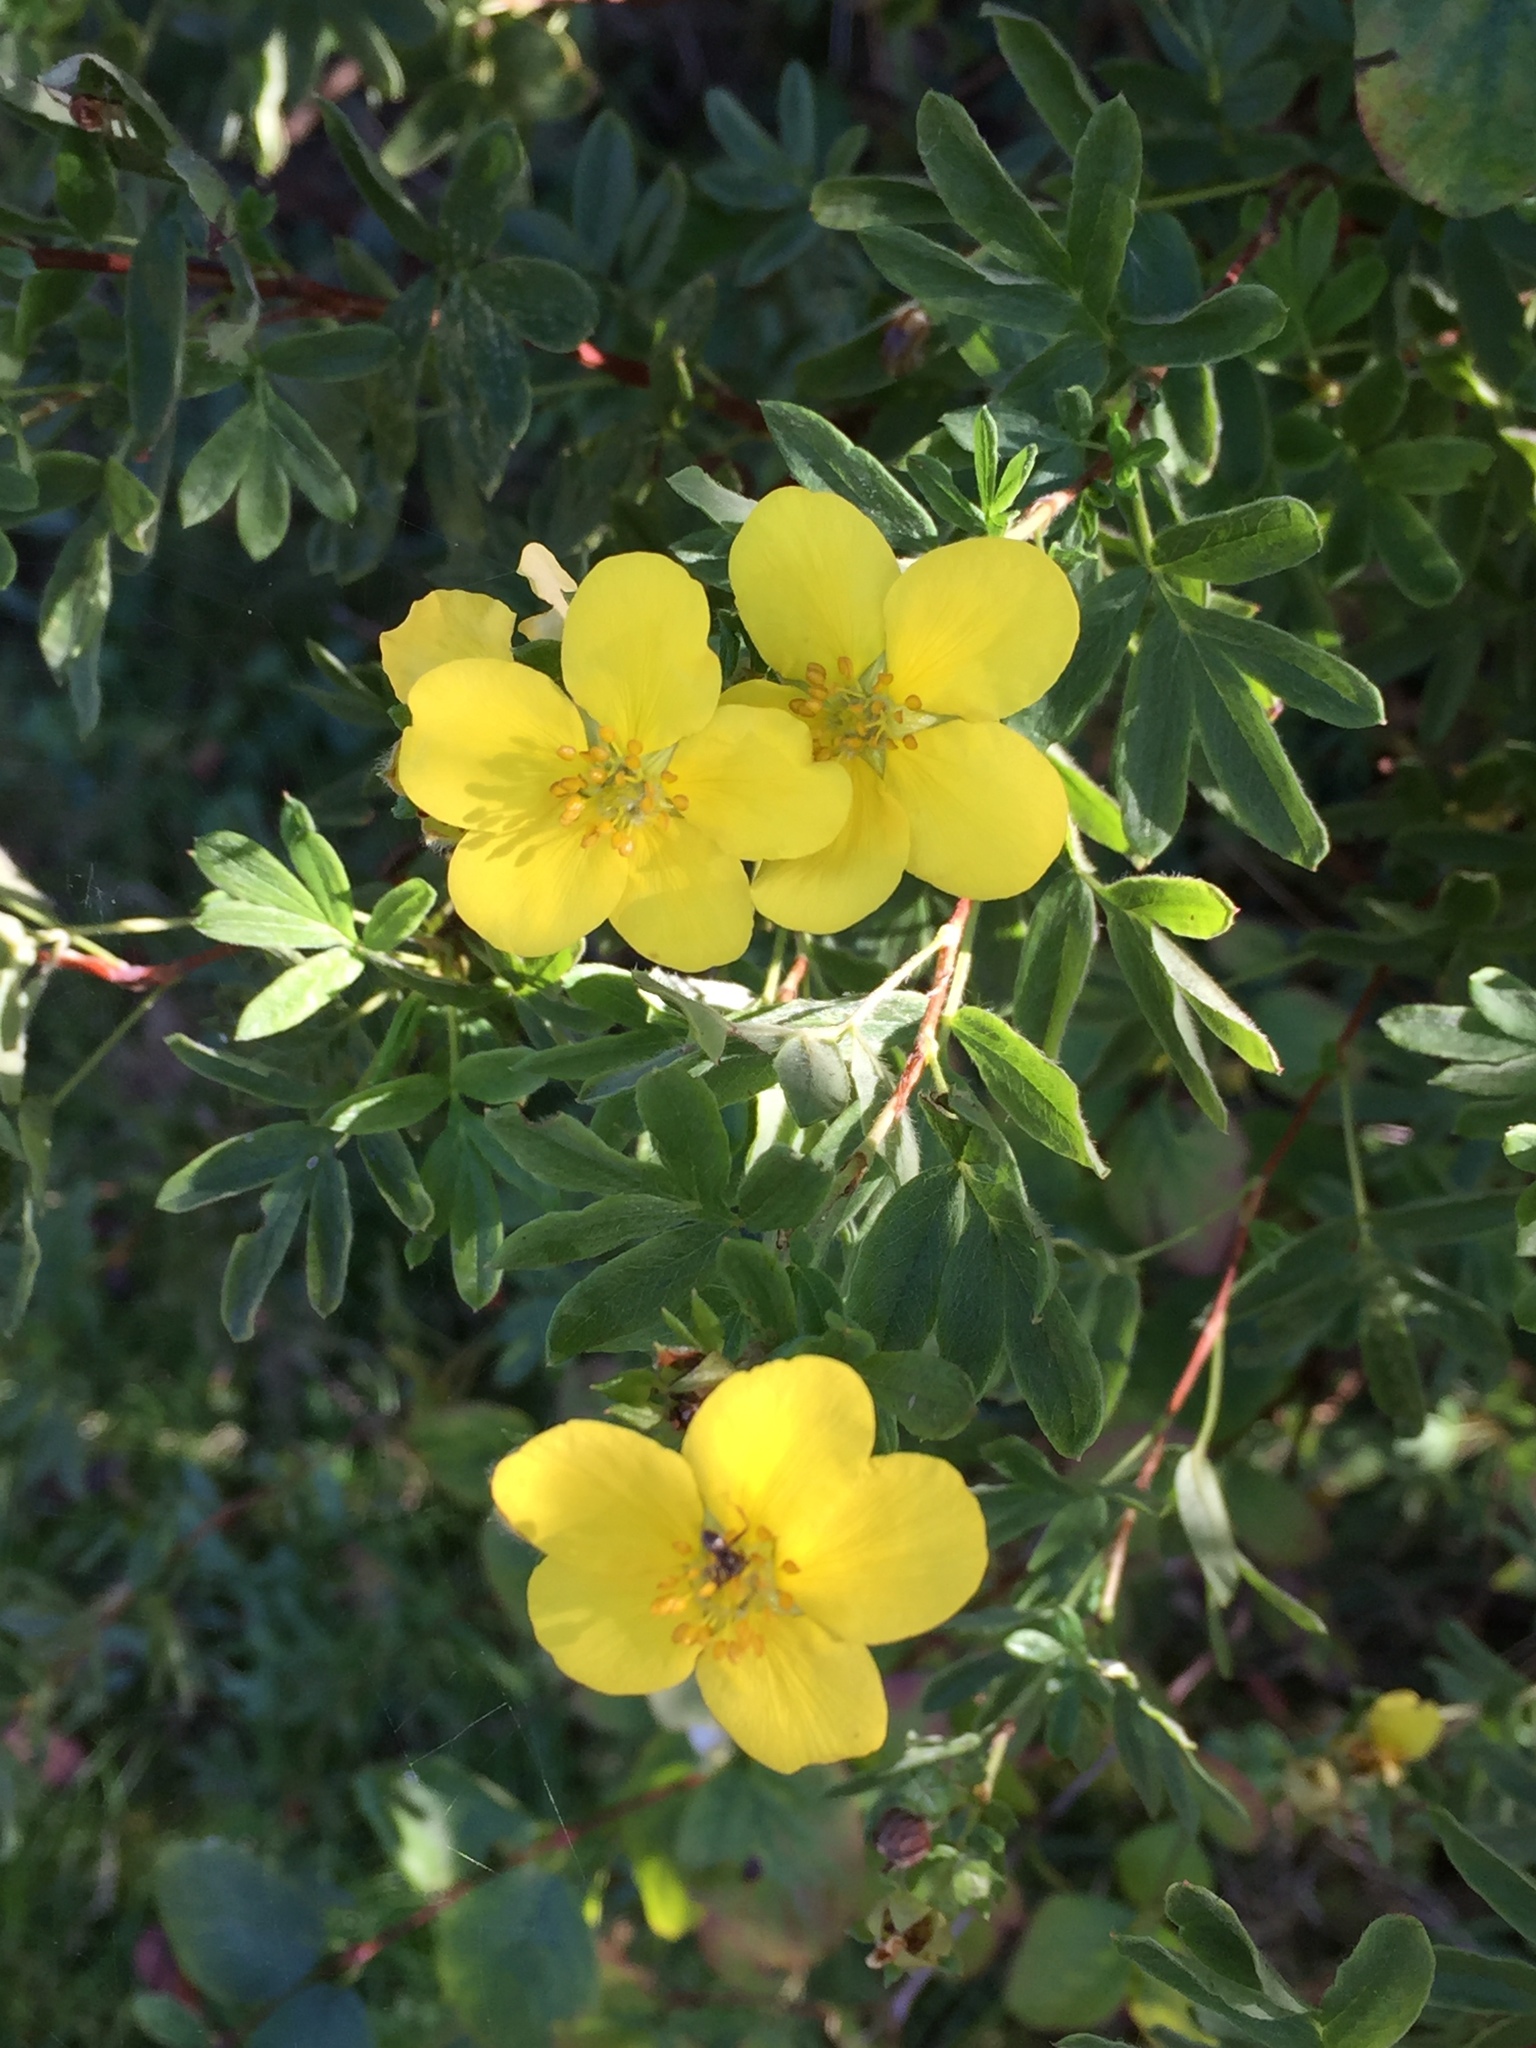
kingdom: Plantae
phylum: Tracheophyta
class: Magnoliopsida
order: Rosales
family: Rosaceae
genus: Dasiphora
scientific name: Dasiphora fruticosa
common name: Shrubby cinquefoil
